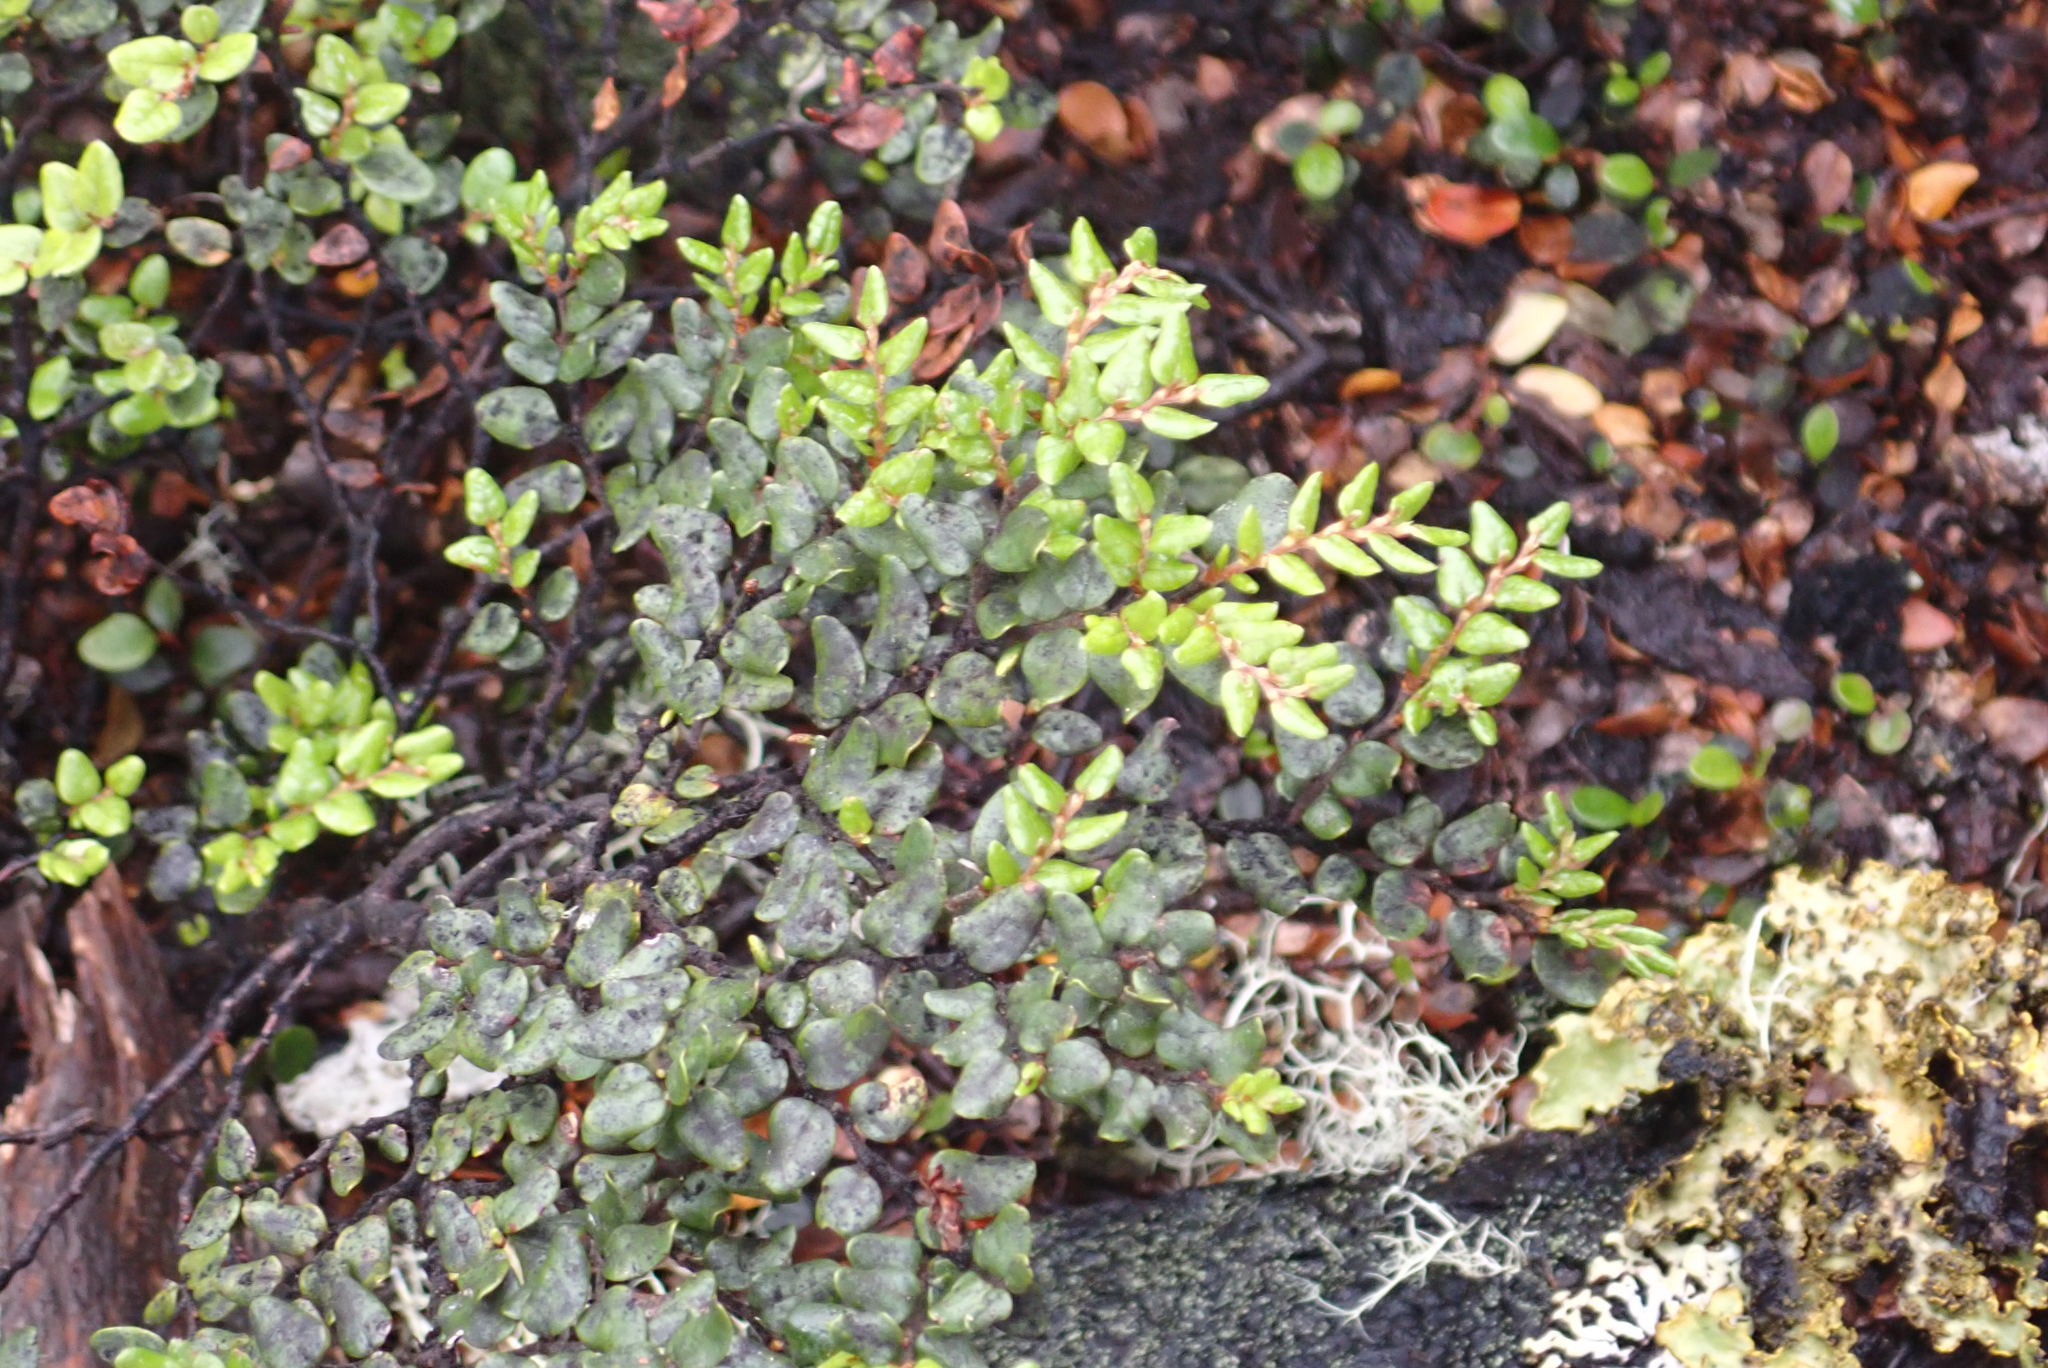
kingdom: Plantae
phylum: Tracheophyta
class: Magnoliopsida
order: Fagales
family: Nothofagaceae
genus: Nothofagus
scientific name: Nothofagus cliffortioides
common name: Mountain beech
